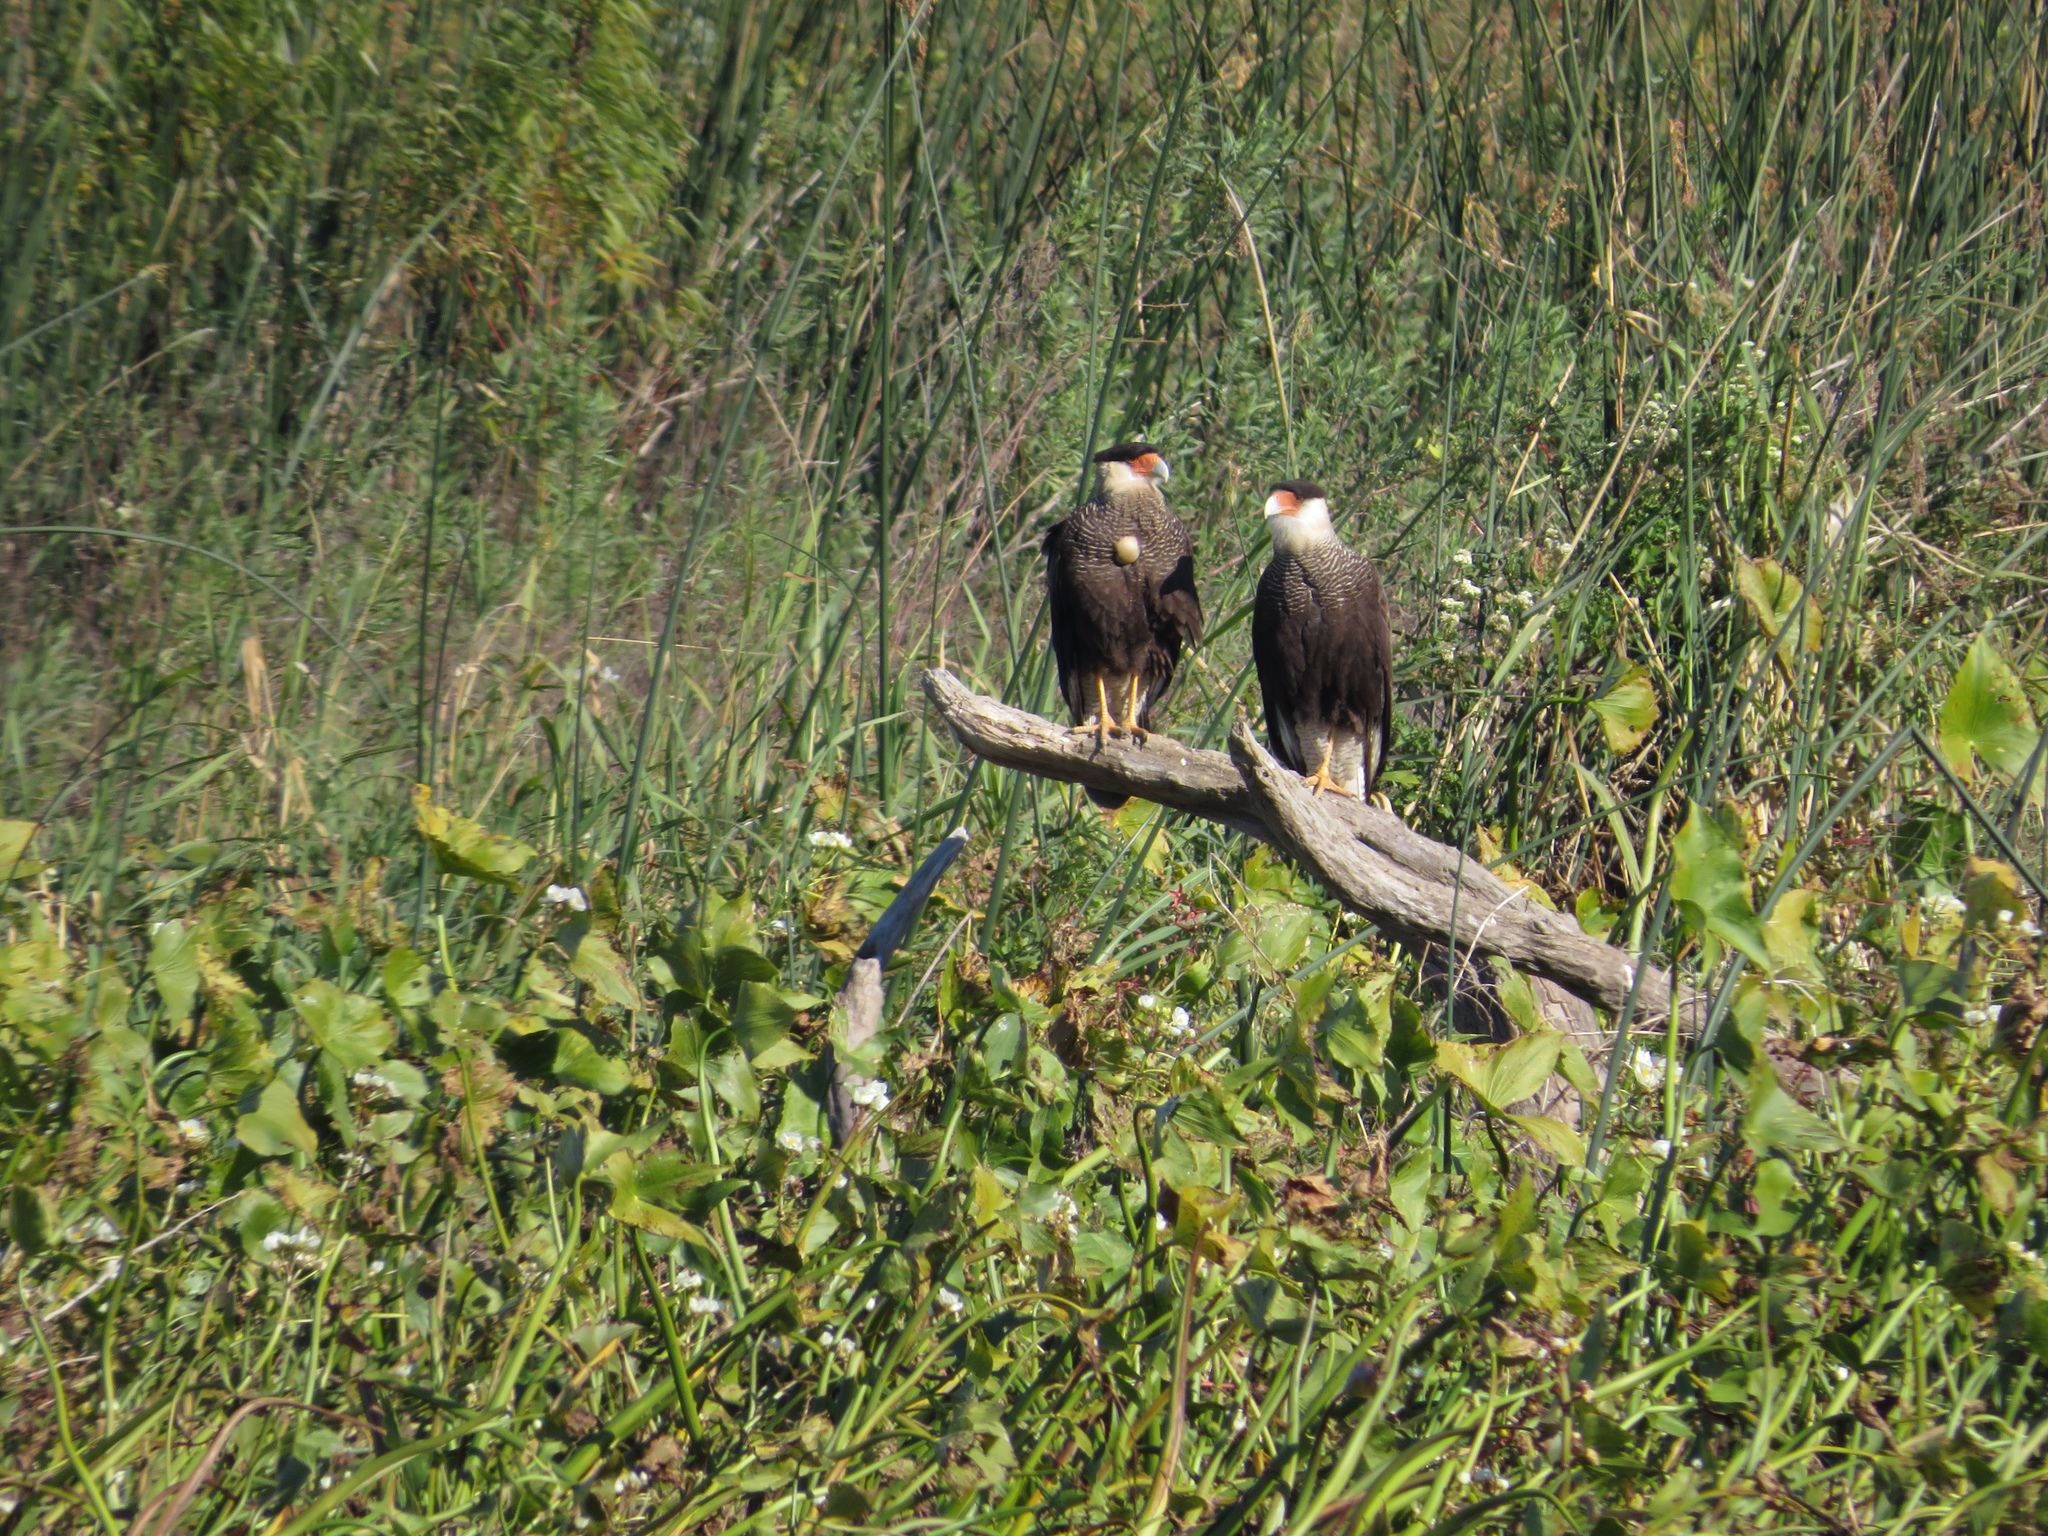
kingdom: Animalia
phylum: Chordata
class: Aves
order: Falconiformes
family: Falconidae
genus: Caracara
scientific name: Caracara plancus
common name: Southern caracara
